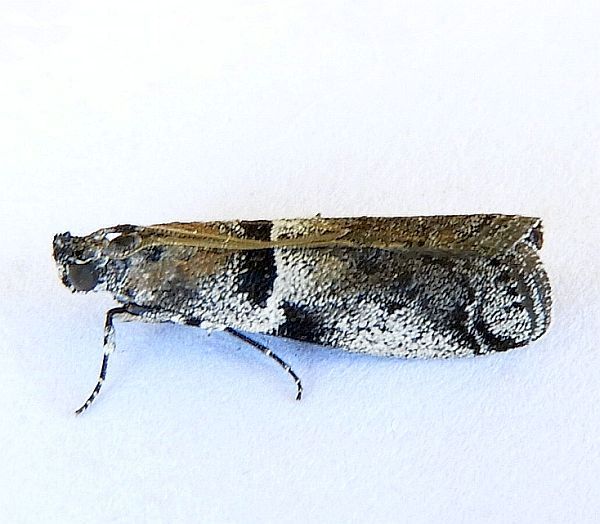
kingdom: Animalia
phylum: Arthropoda
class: Insecta
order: Lepidoptera
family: Pyralidae
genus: Quasisalebria
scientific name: Quasisalebria admixta
